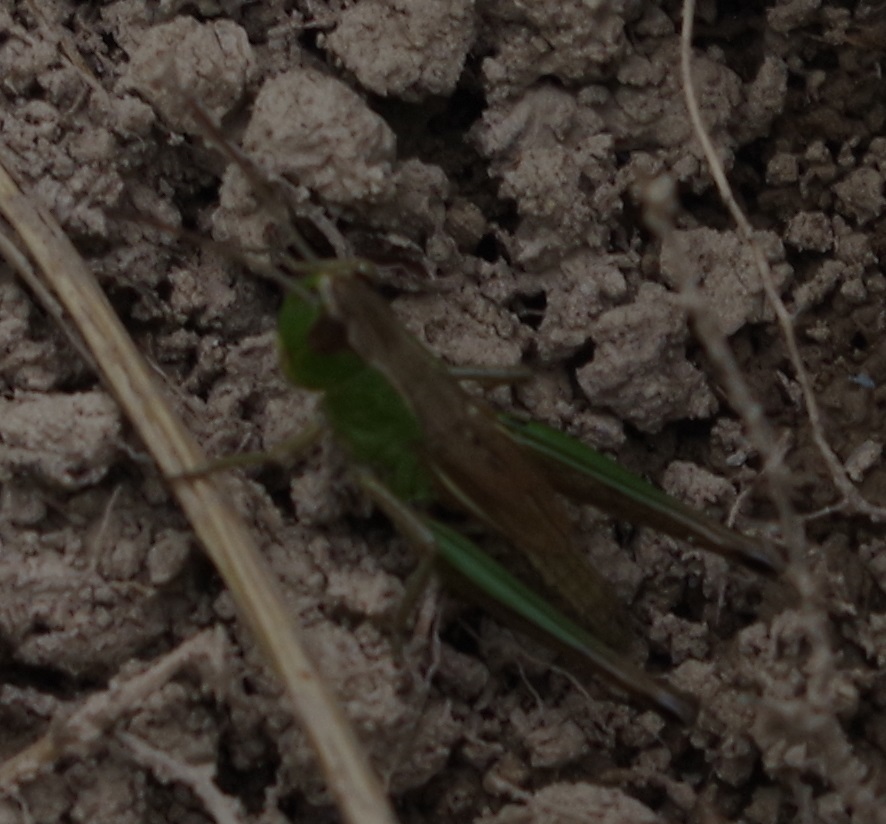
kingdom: Animalia
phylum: Arthropoda
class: Insecta
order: Orthoptera
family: Acrididae
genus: Pseudochorthippus
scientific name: Pseudochorthippus parallelus
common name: Meadow grasshopper
